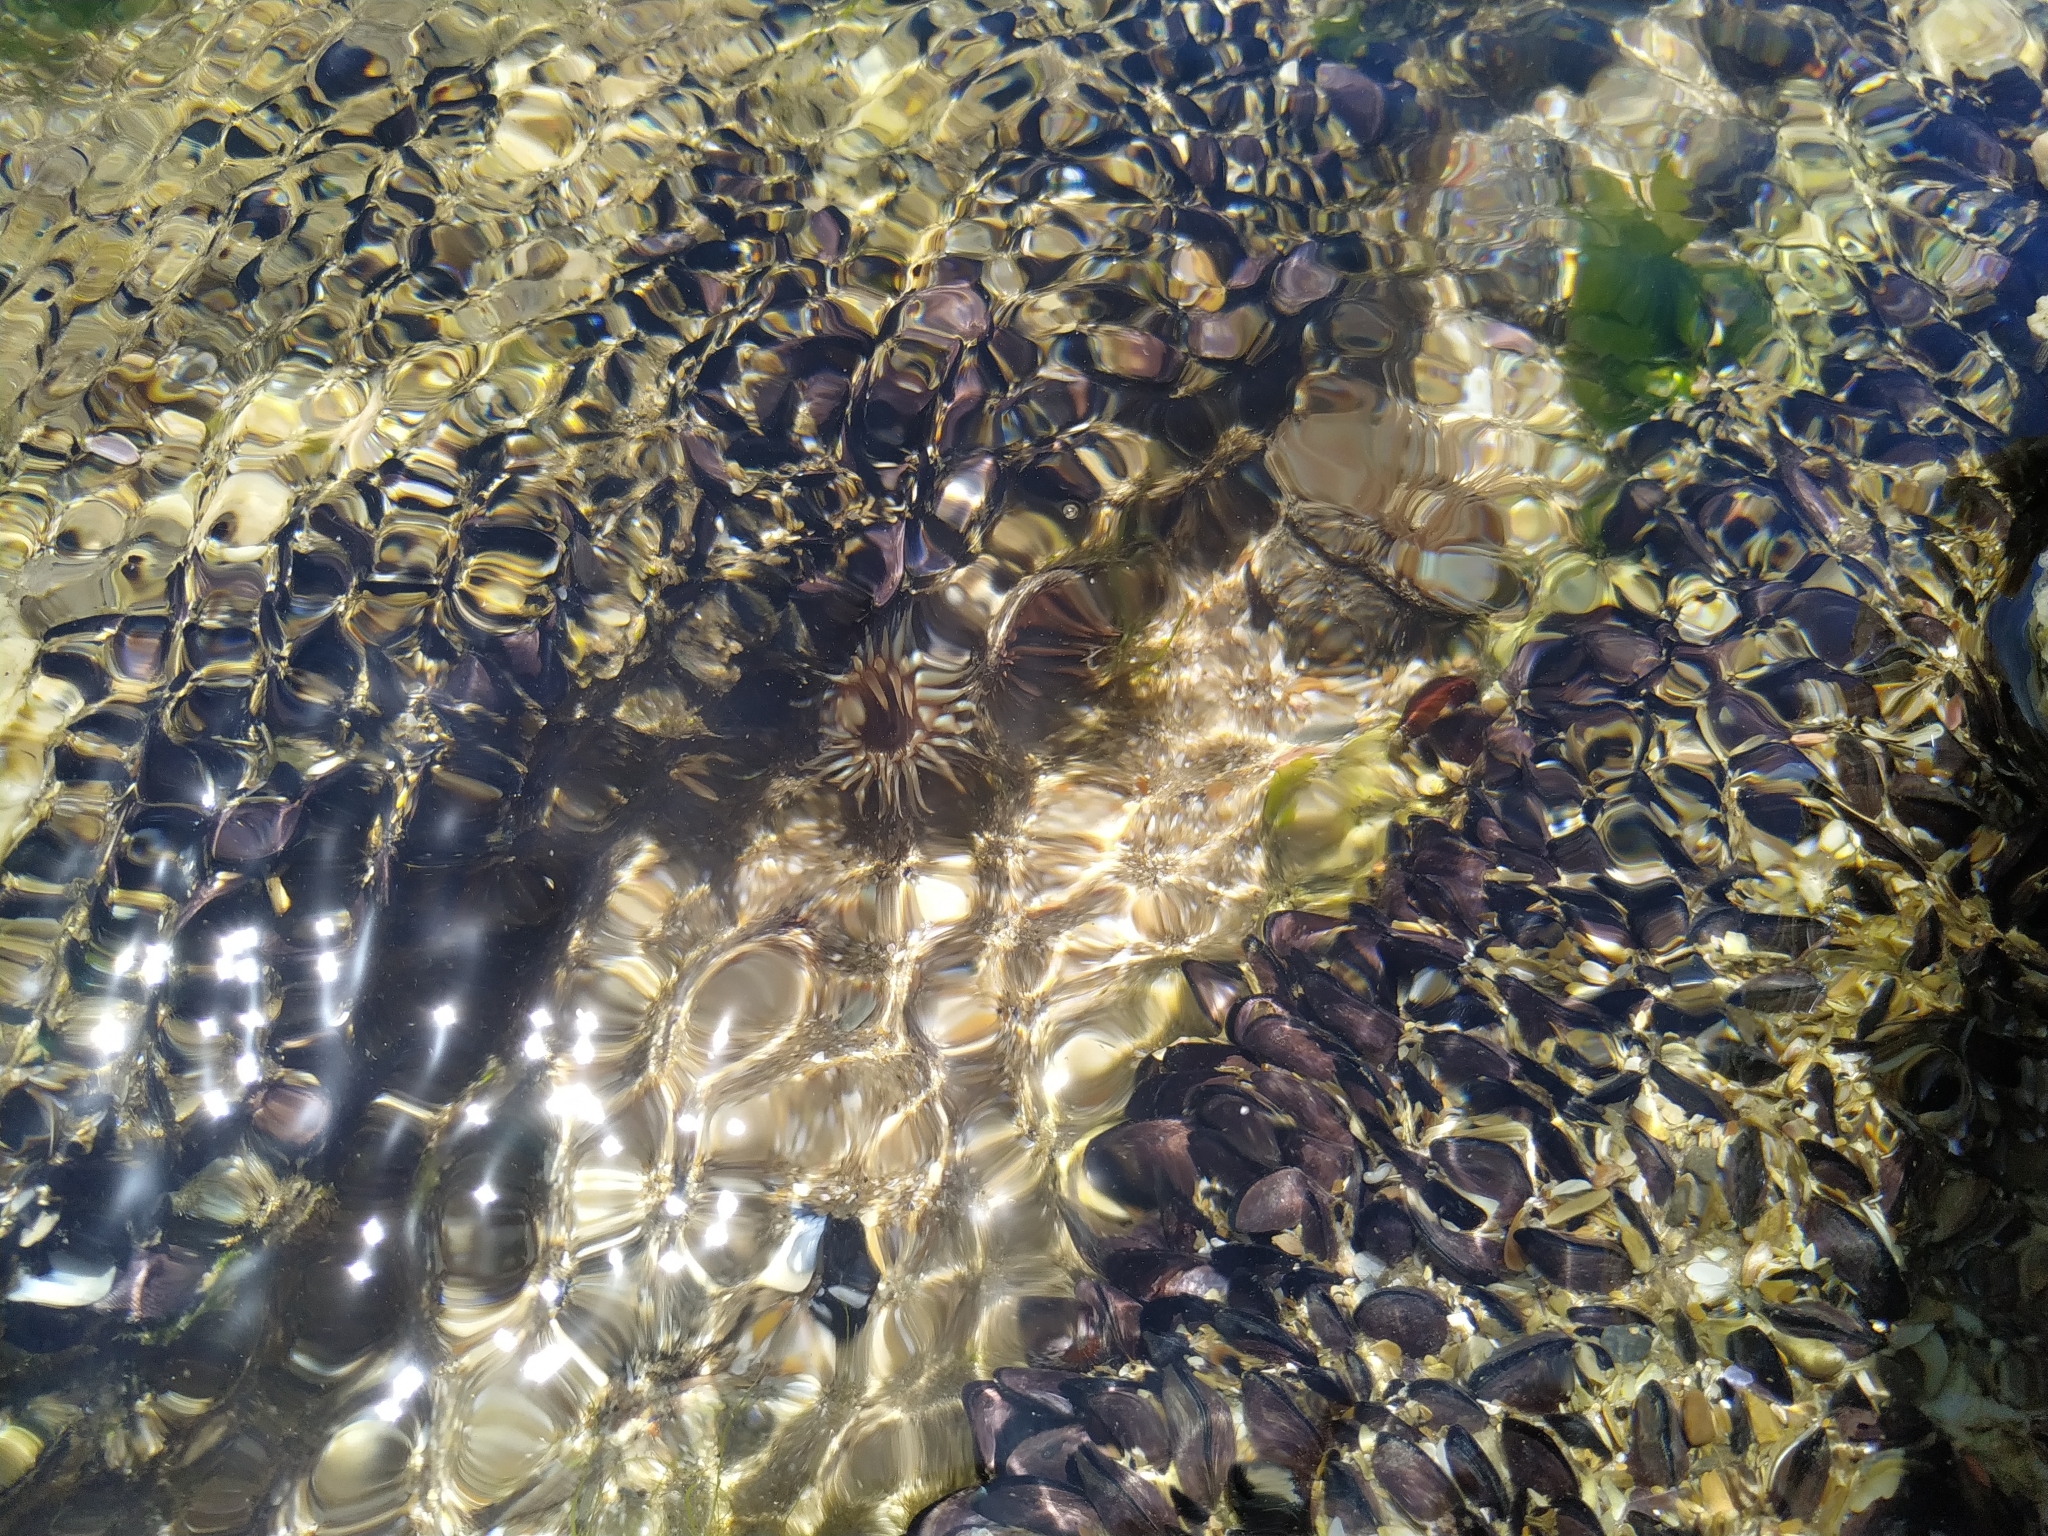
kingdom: Animalia
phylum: Cnidaria
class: Anthozoa
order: Actiniaria
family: Actiniidae
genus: Bunodosoma
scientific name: Bunodosoma cangicum
